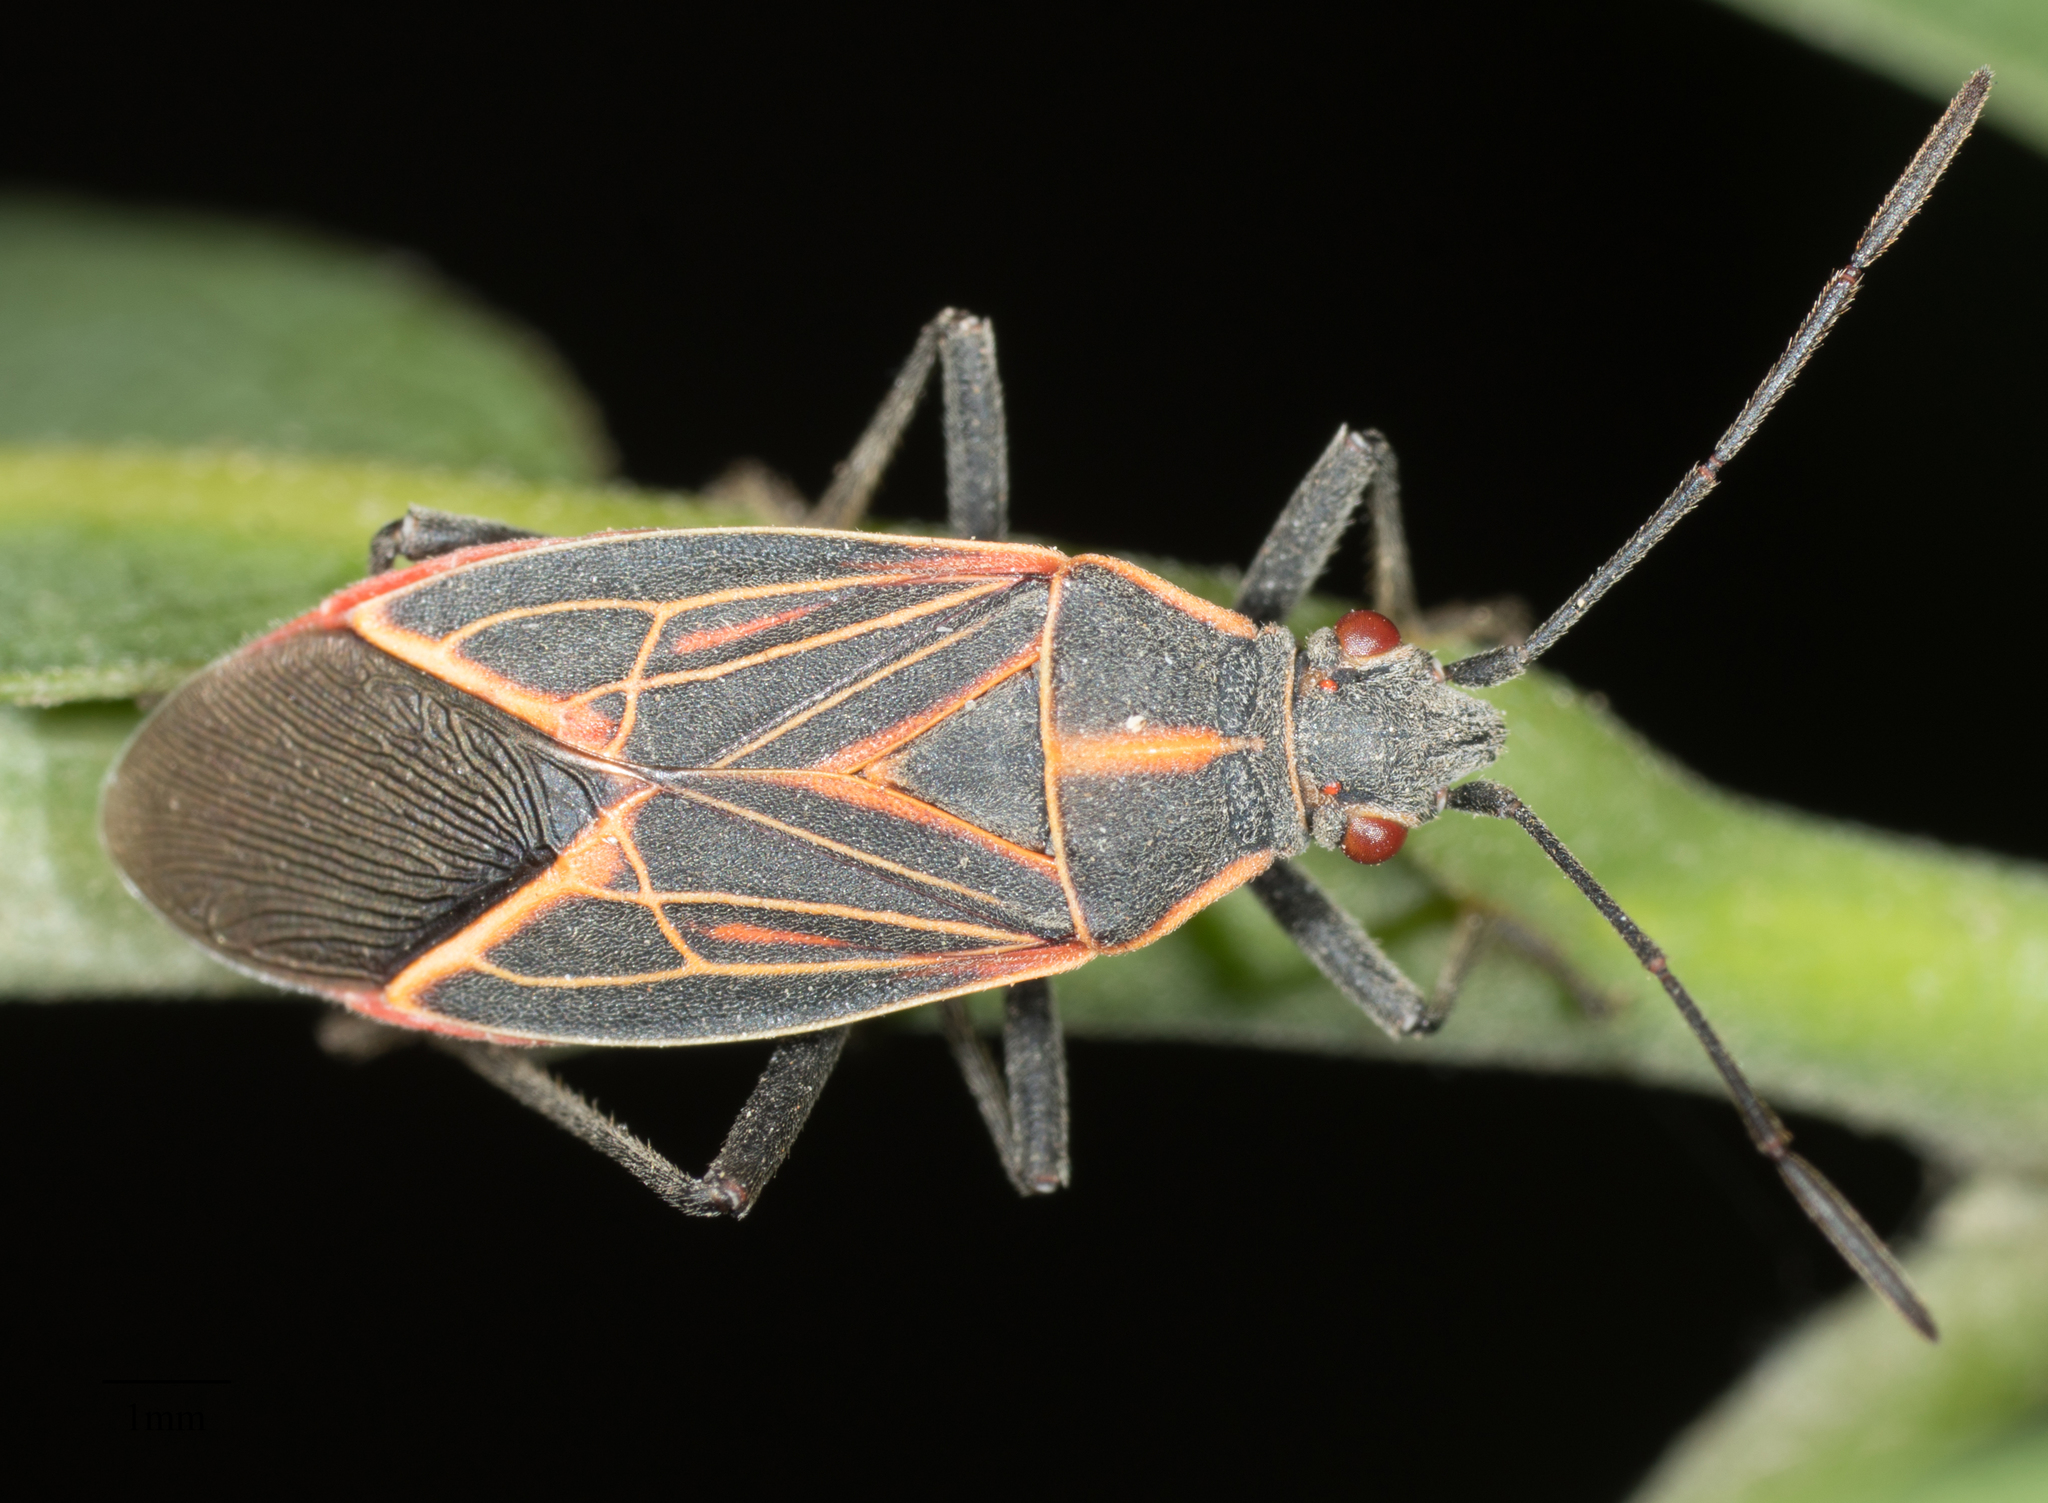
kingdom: Animalia
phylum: Arthropoda
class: Insecta
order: Hemiptera
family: Rhopalidae
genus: Boisea
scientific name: Boisea rubrolineata
